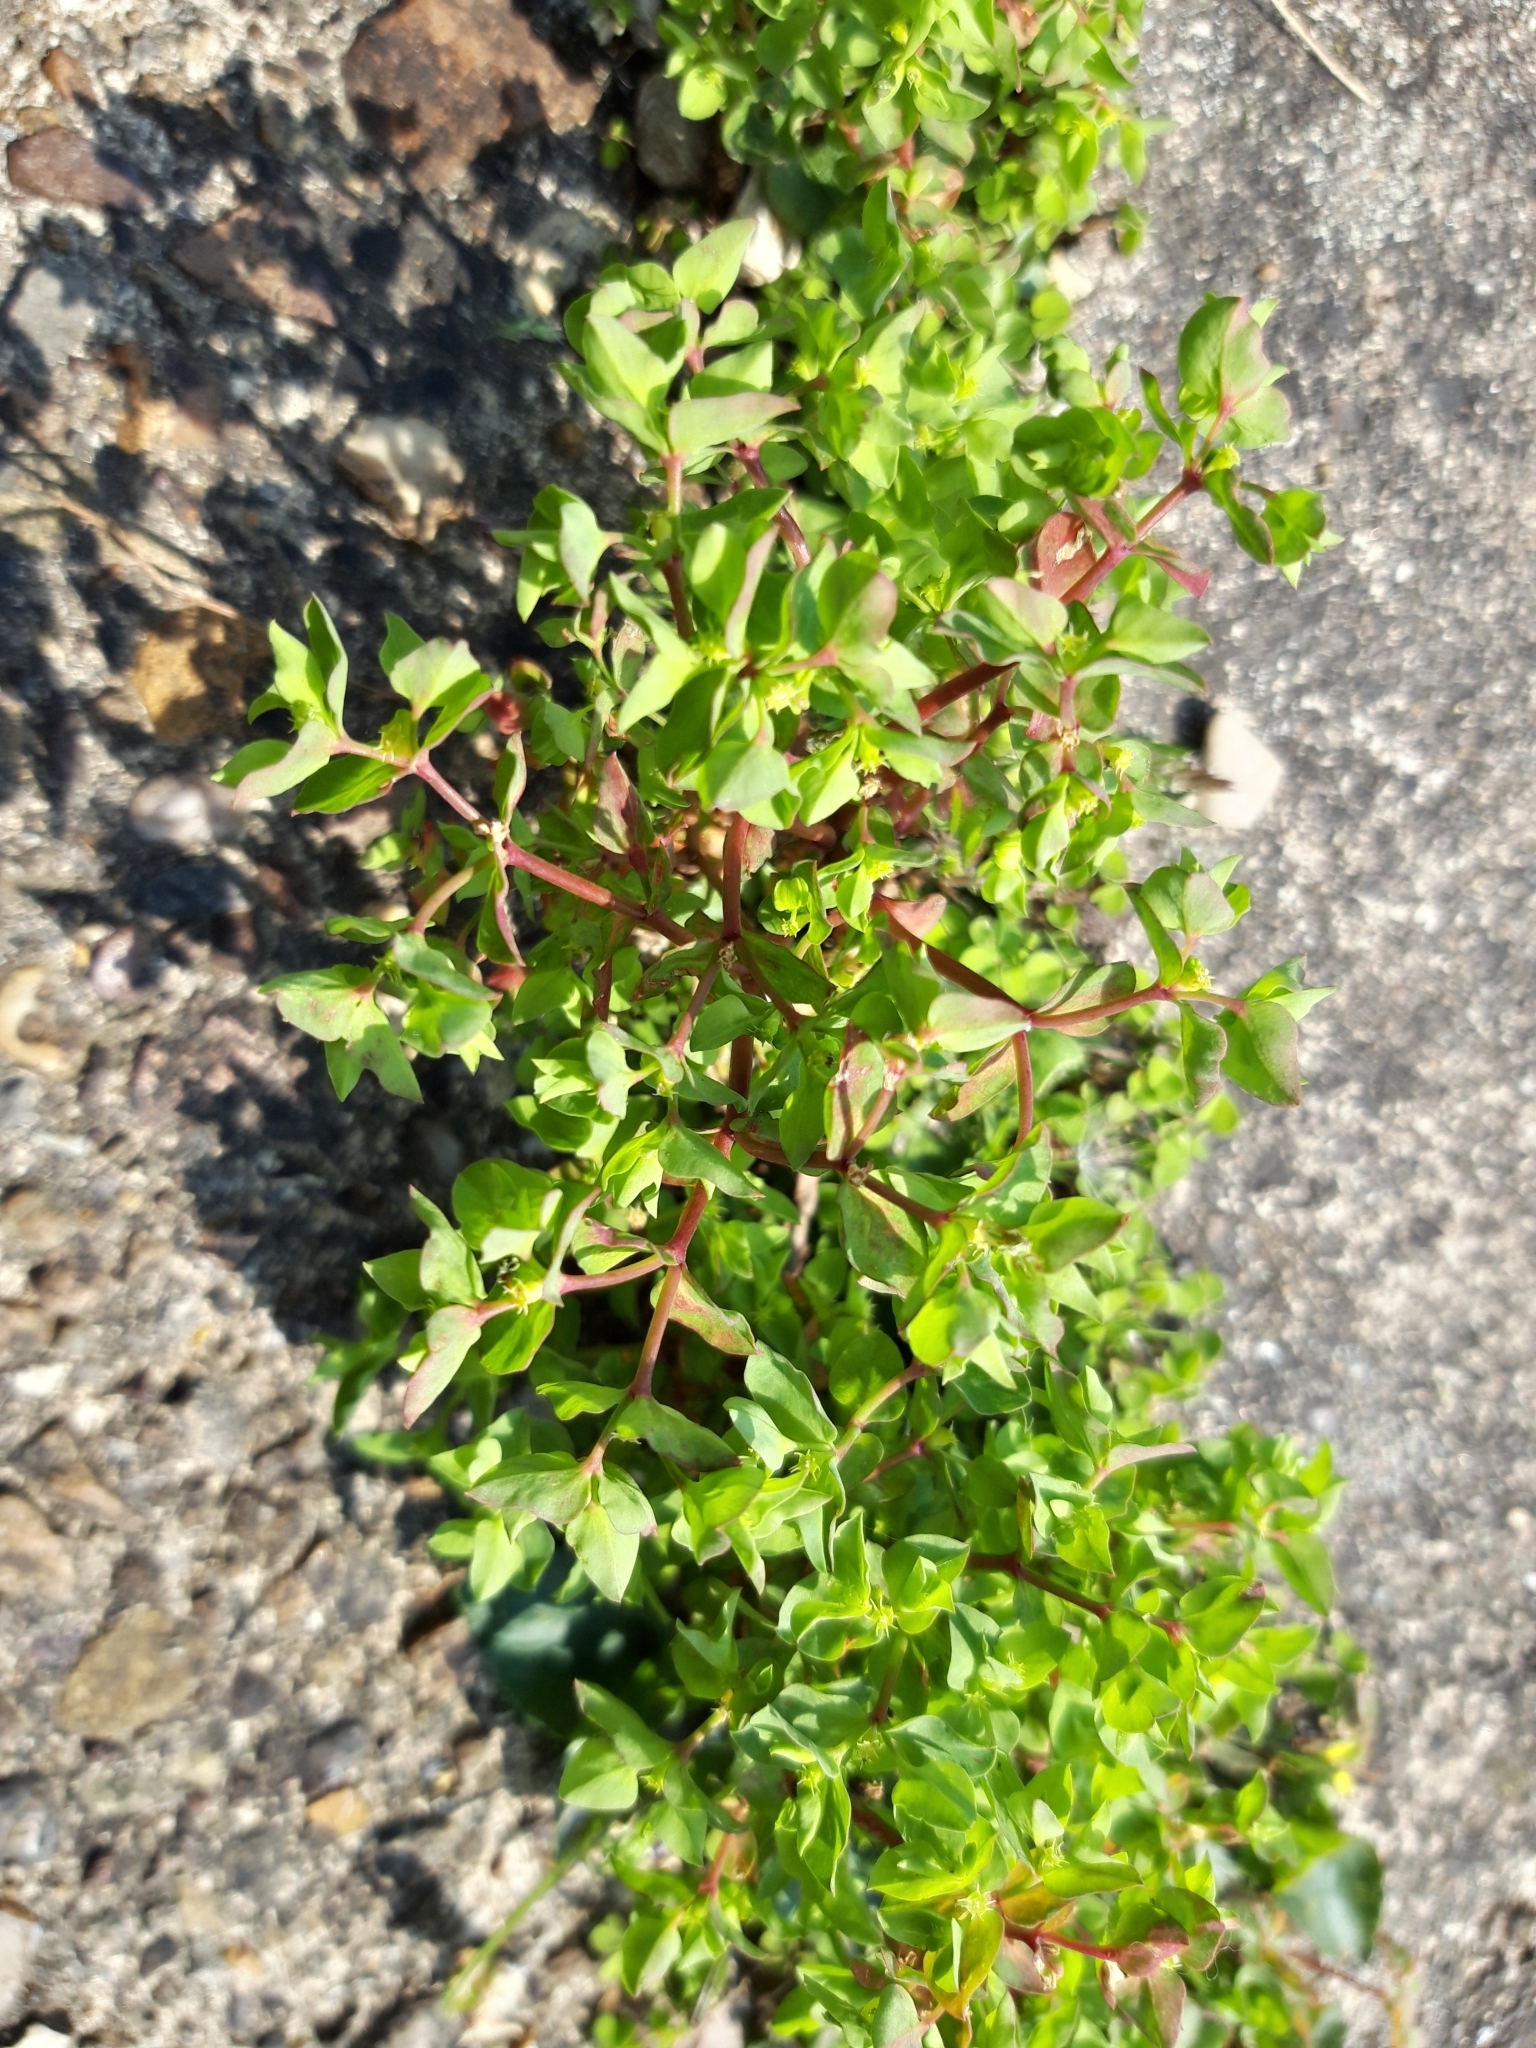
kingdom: Plantae
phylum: Tracheophyta
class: Magnoliopsida
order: Malpighiales
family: Euphorbiaceae
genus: Euphorbia
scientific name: Euphorbia peplus
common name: Petty spurge
